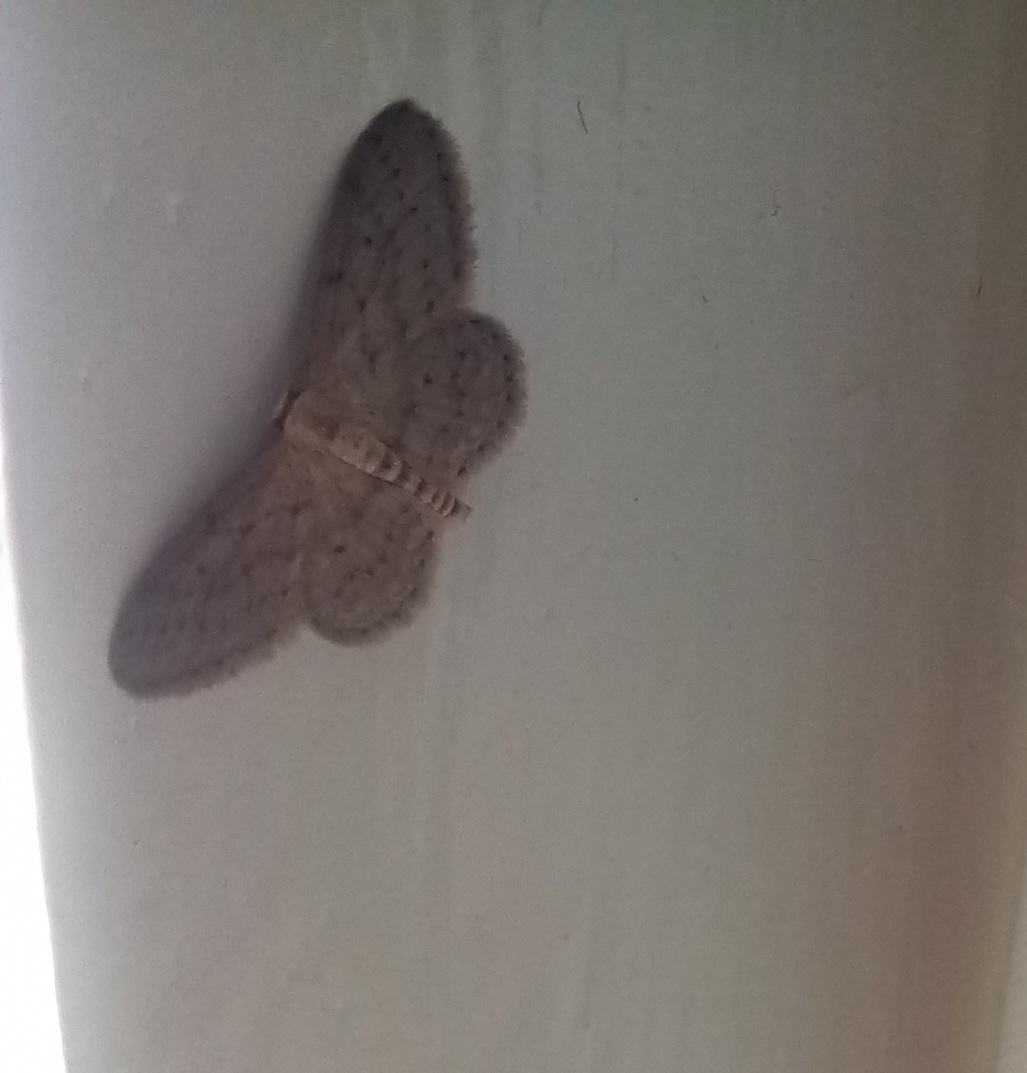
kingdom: Animalia
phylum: Arthropoda
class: Insecta
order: Lepidoptera
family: Geometridae
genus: Idaea
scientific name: Idaea seriata
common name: Small dusty wave
